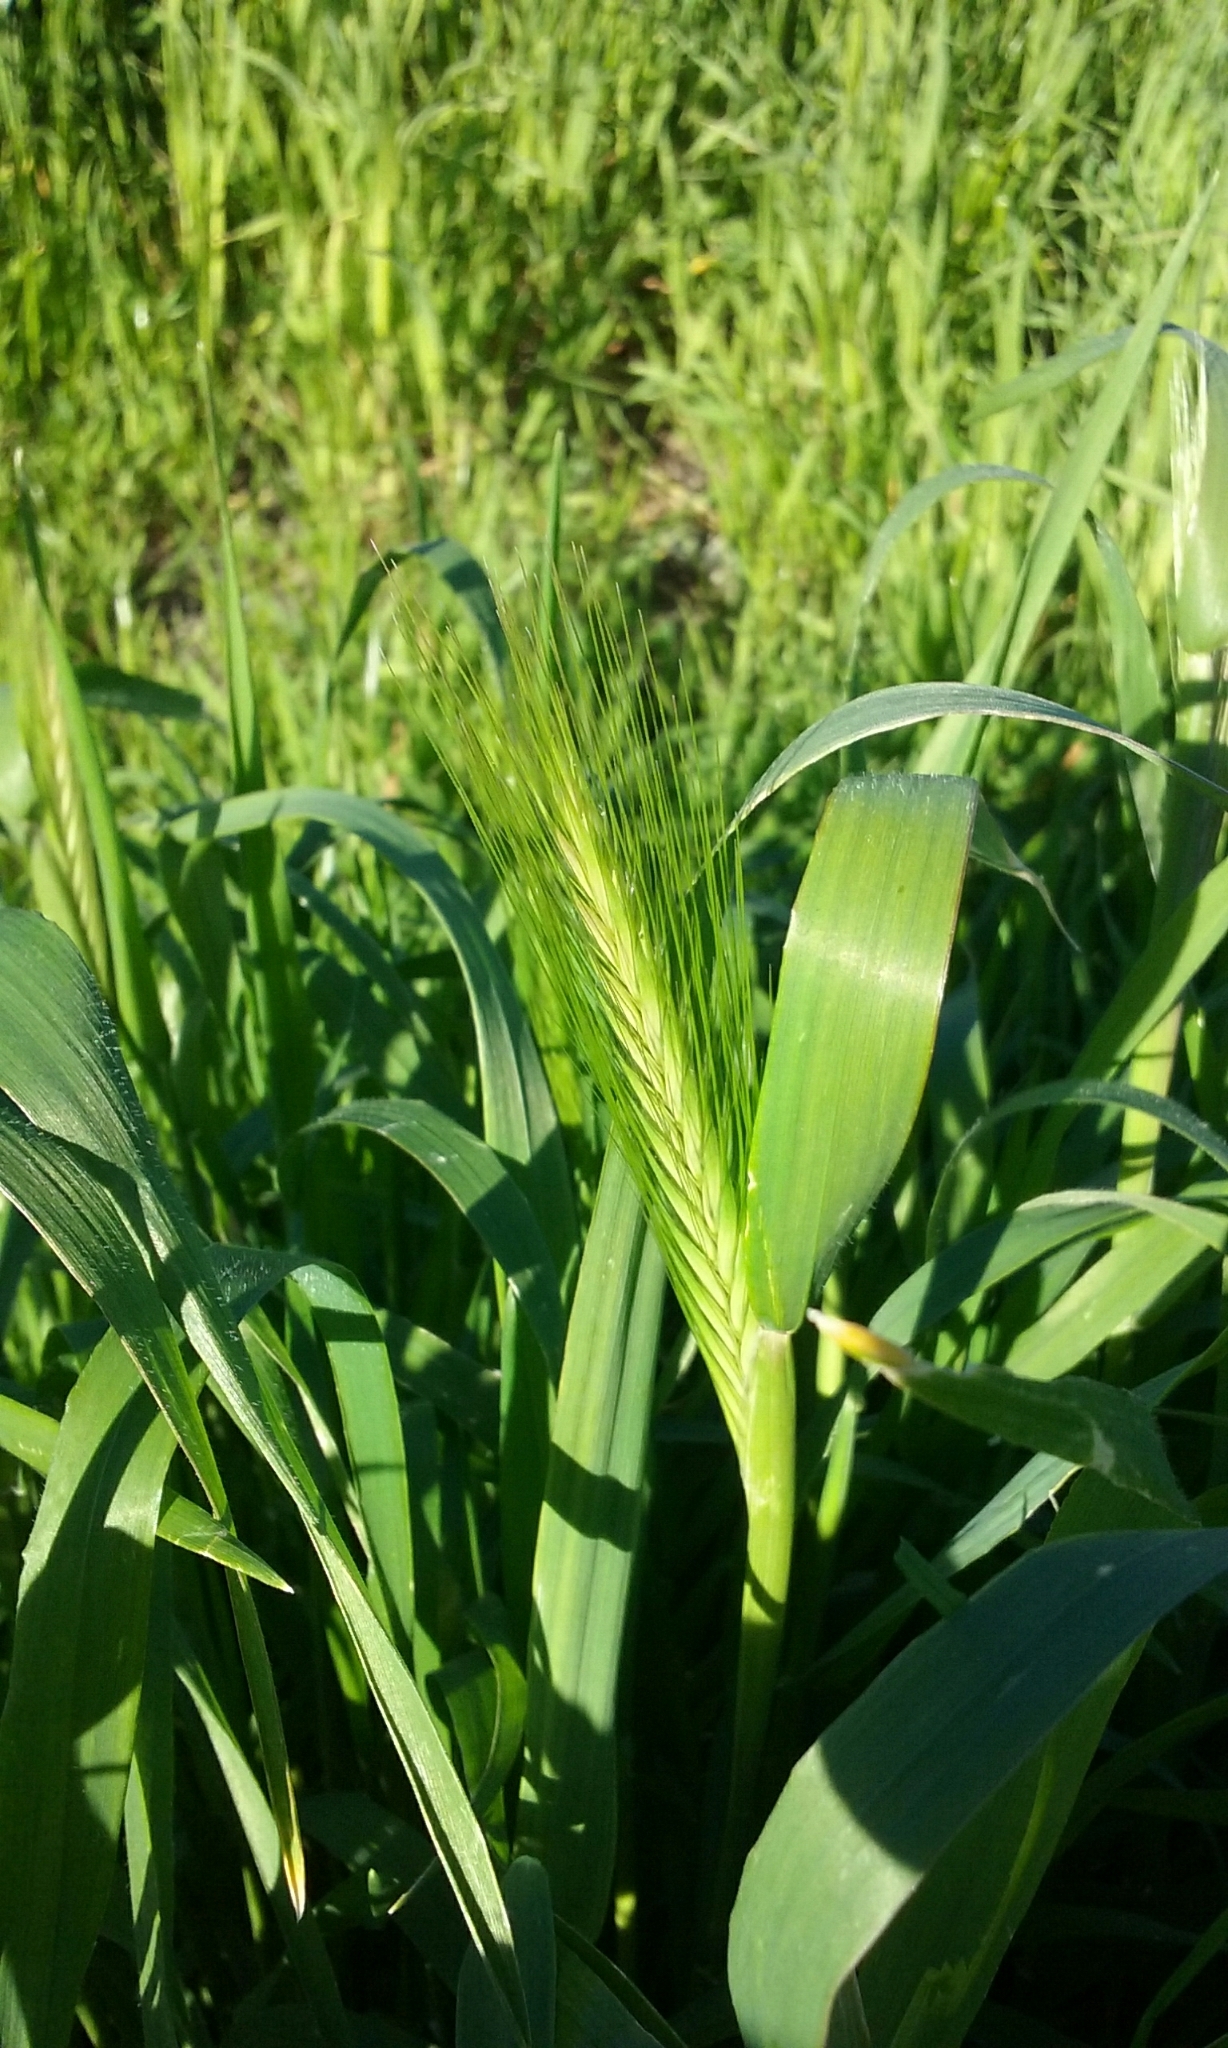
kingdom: Plantae
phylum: Tracheophyta
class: Liliopsida
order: Poales
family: Poaceae
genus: Hordeum
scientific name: Hordeum murinum
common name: Wall barley
